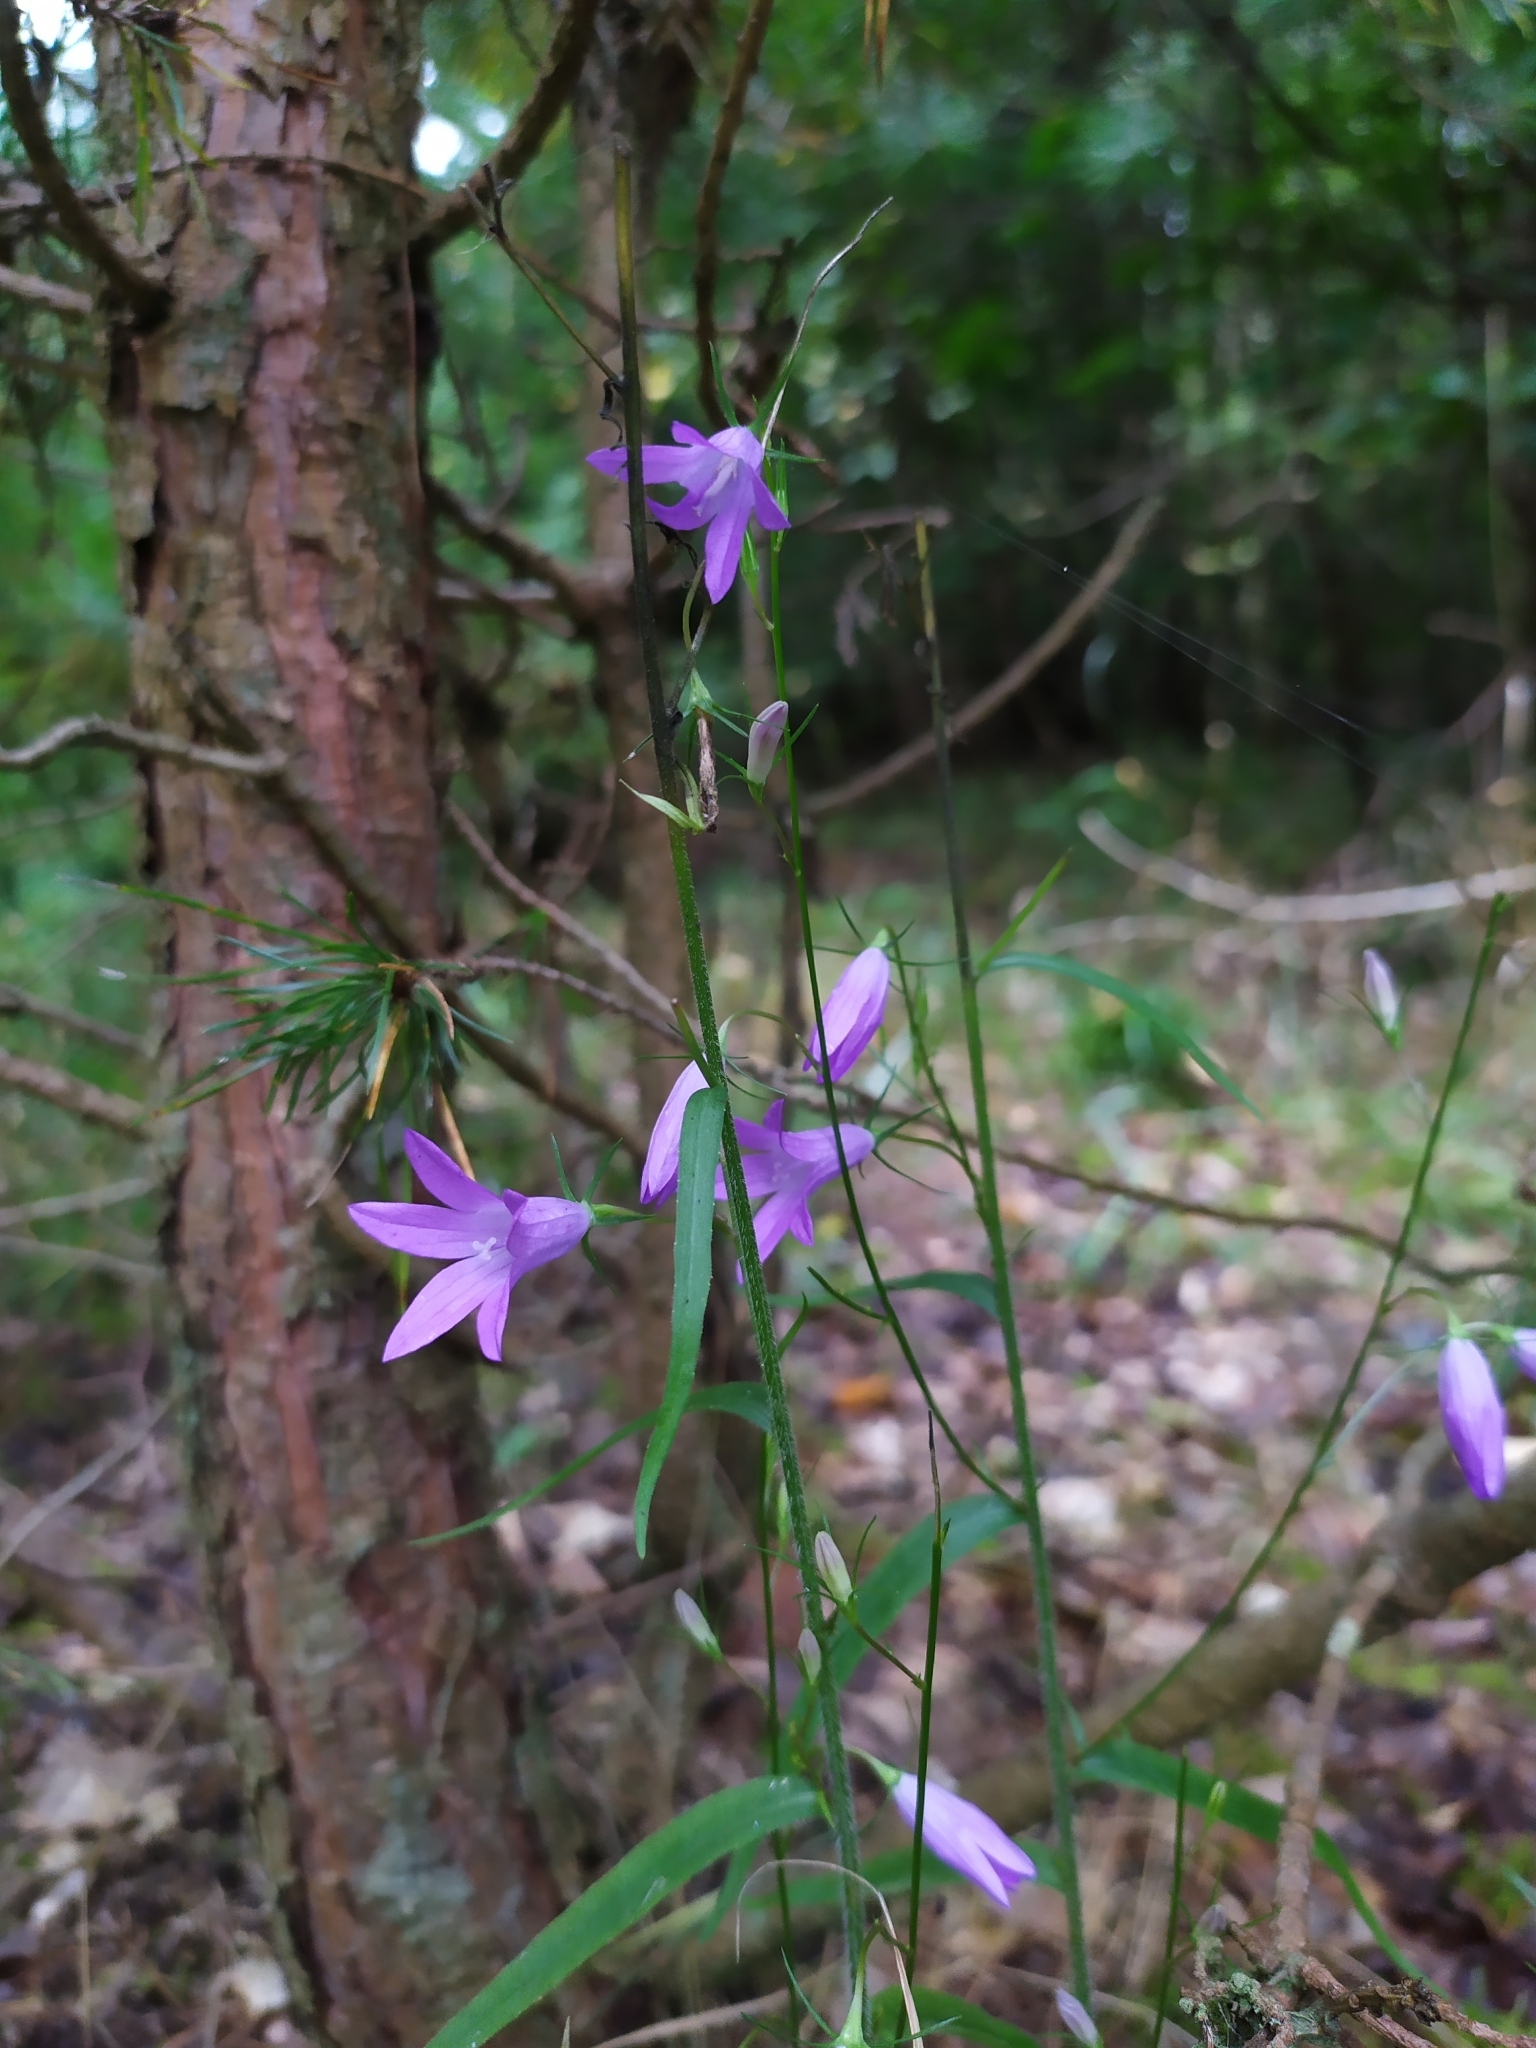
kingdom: Plantae
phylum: Tracheophyta
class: Magnoliopsida
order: Asterales
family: Campanulaceae
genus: Campanula
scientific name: Campanula rapunculus
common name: Rampion bellflower
